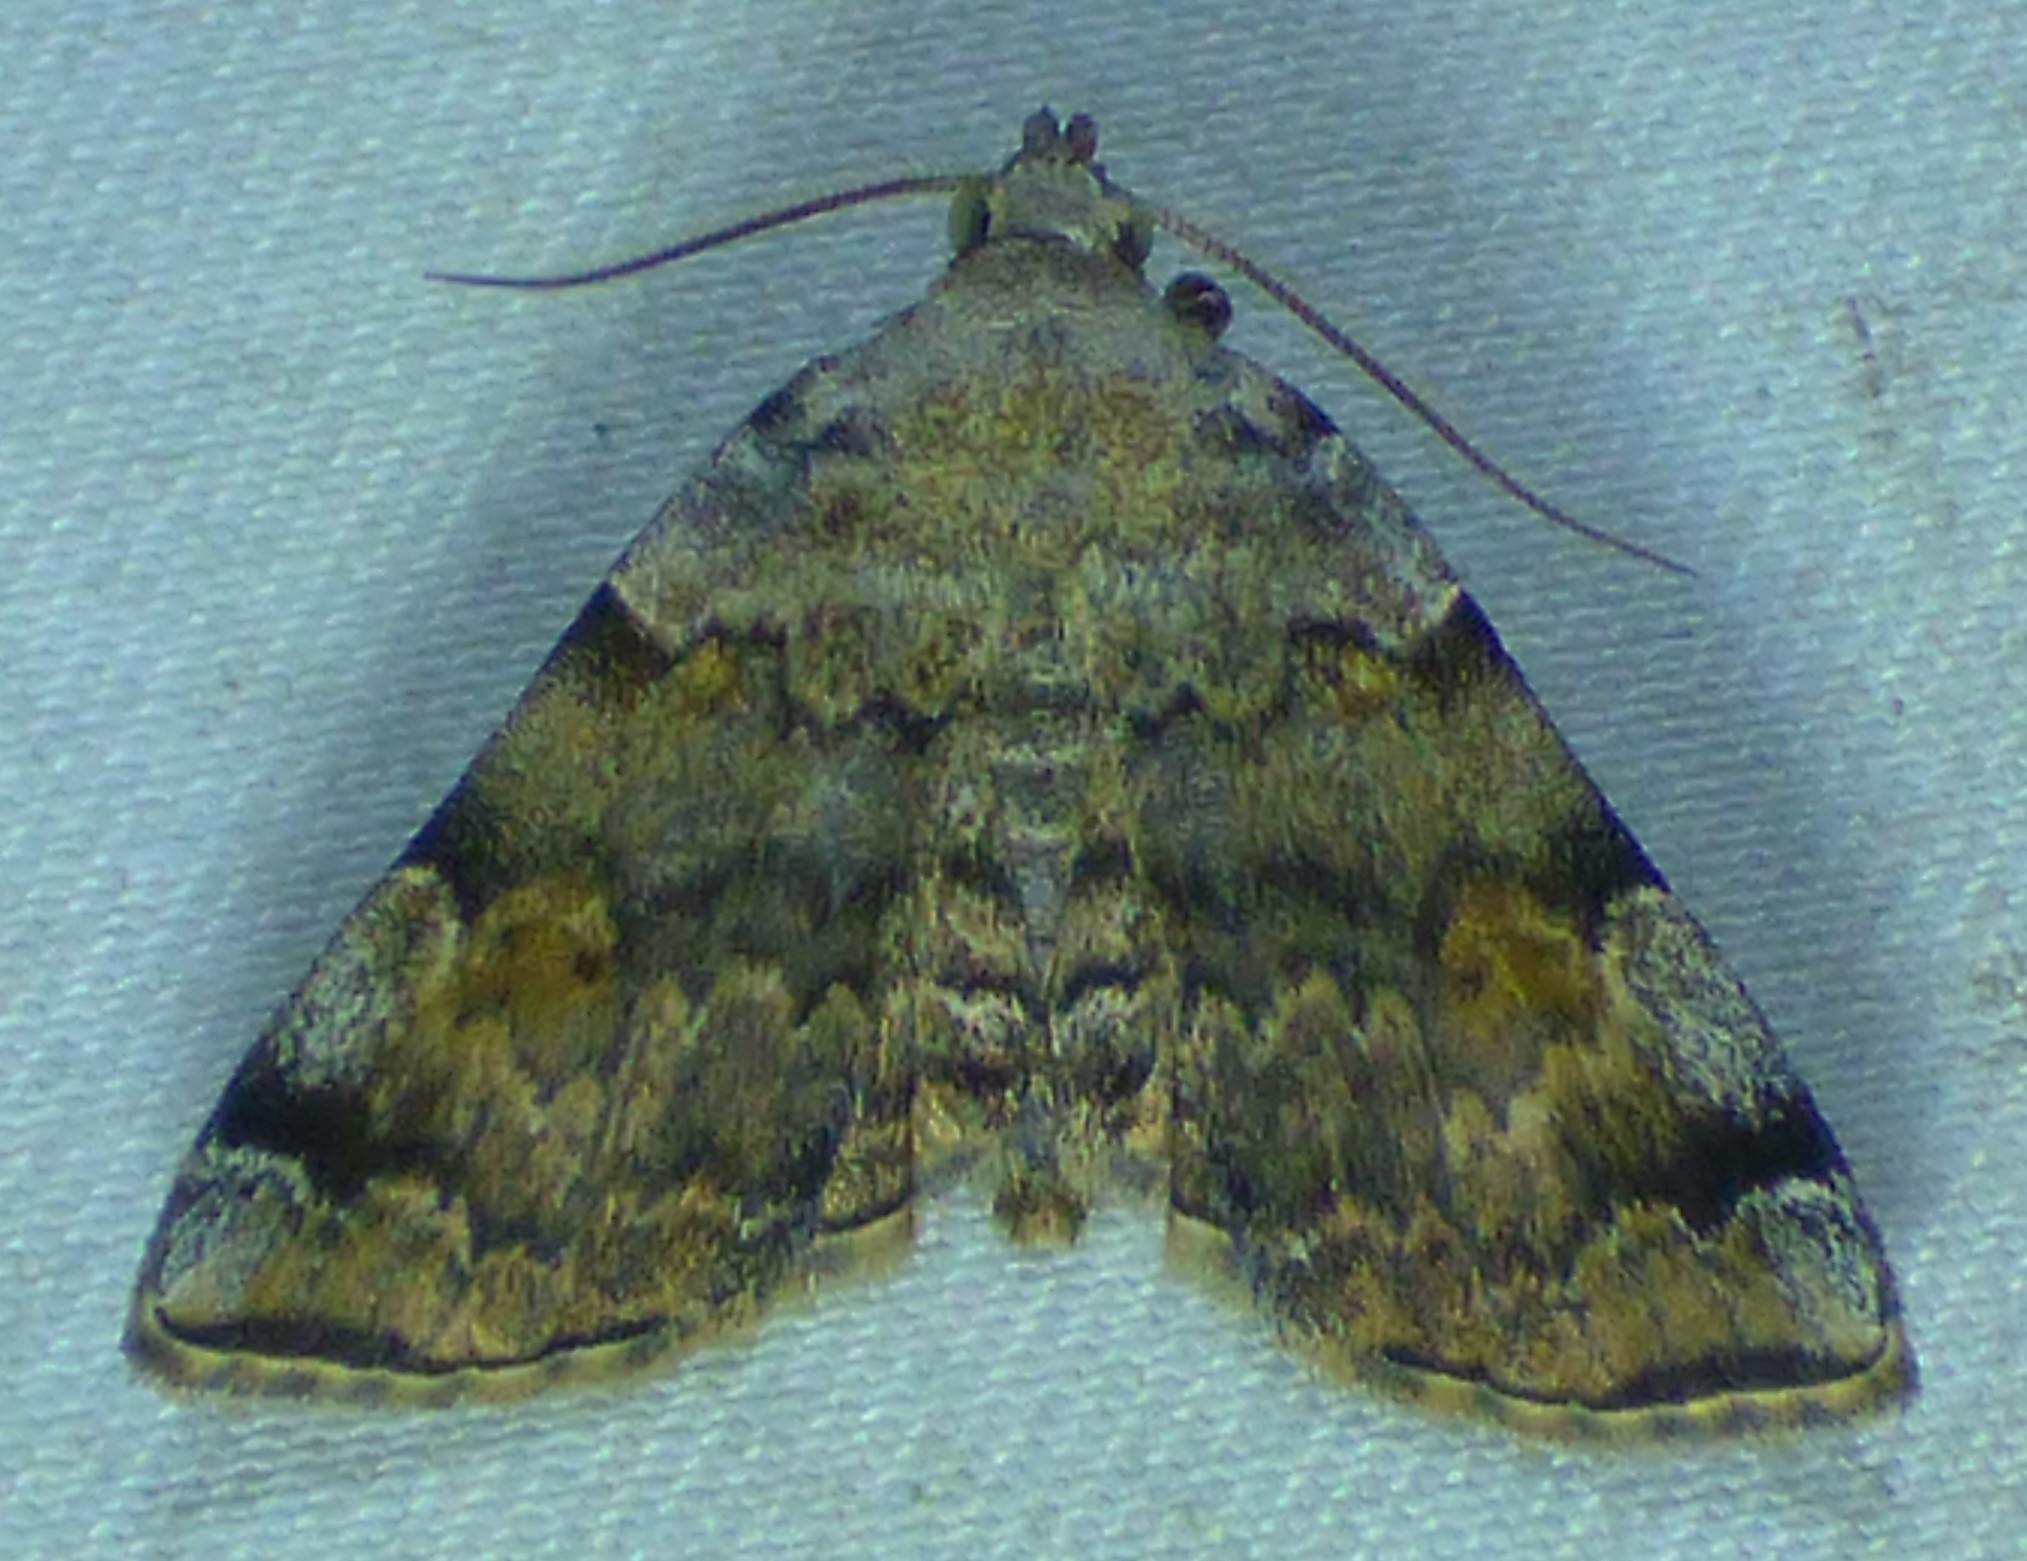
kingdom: Animalia
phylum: Arthropoda
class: Insecta
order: Lepidoptera
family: Erebidae
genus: Idia
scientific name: Idia americalis
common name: American idia moth
